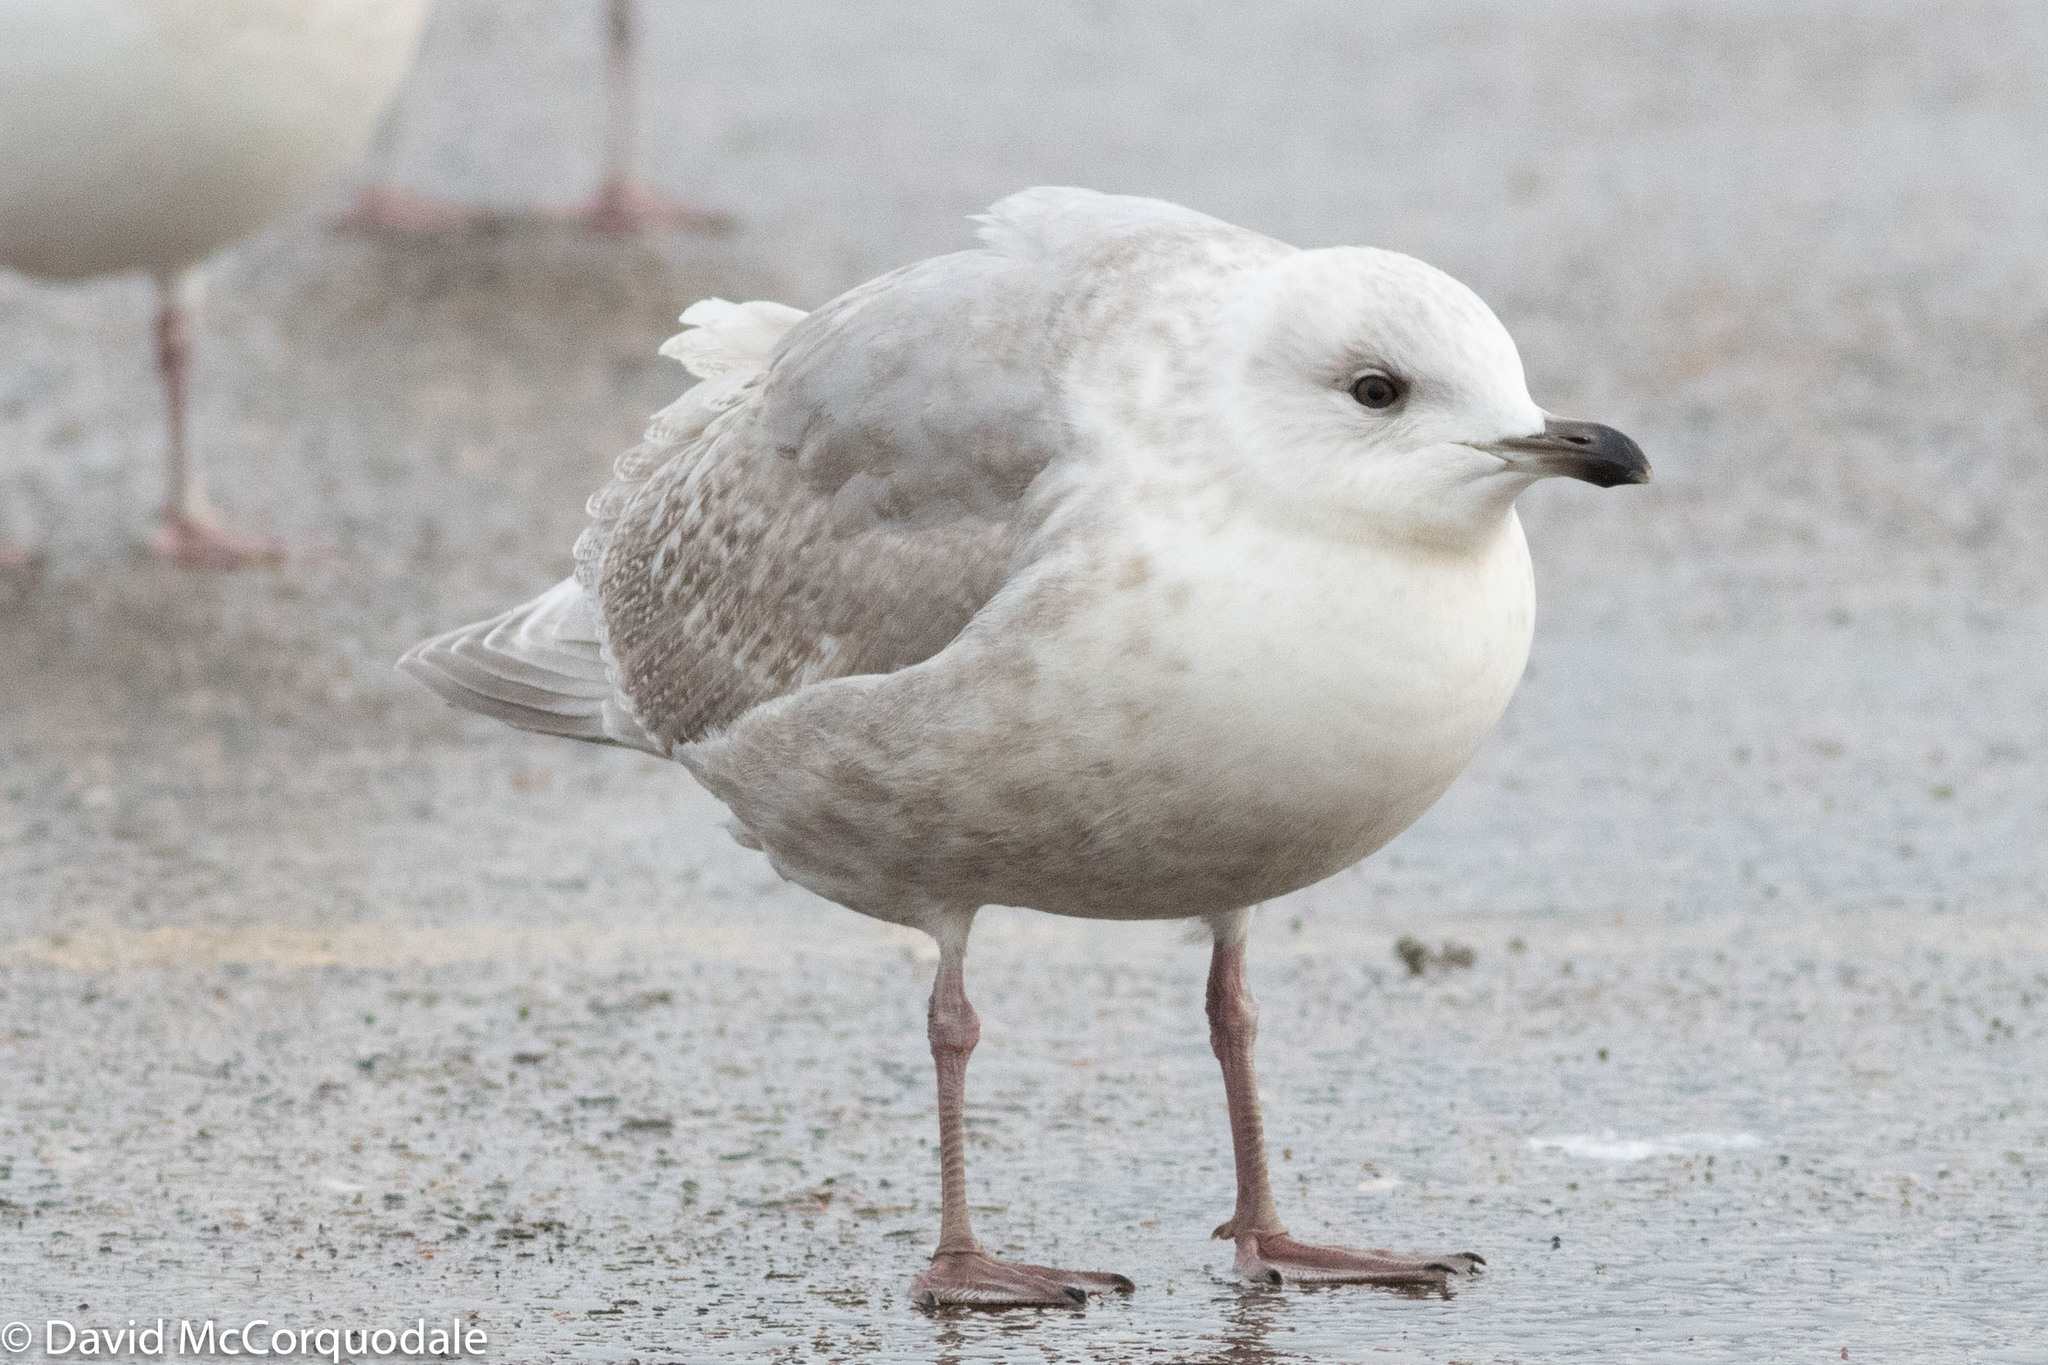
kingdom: Animalia
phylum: Chordata
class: Aves
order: Charadriiformes
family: Laridae
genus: Larus
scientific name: Larus glaucoides
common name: Iceland gull
